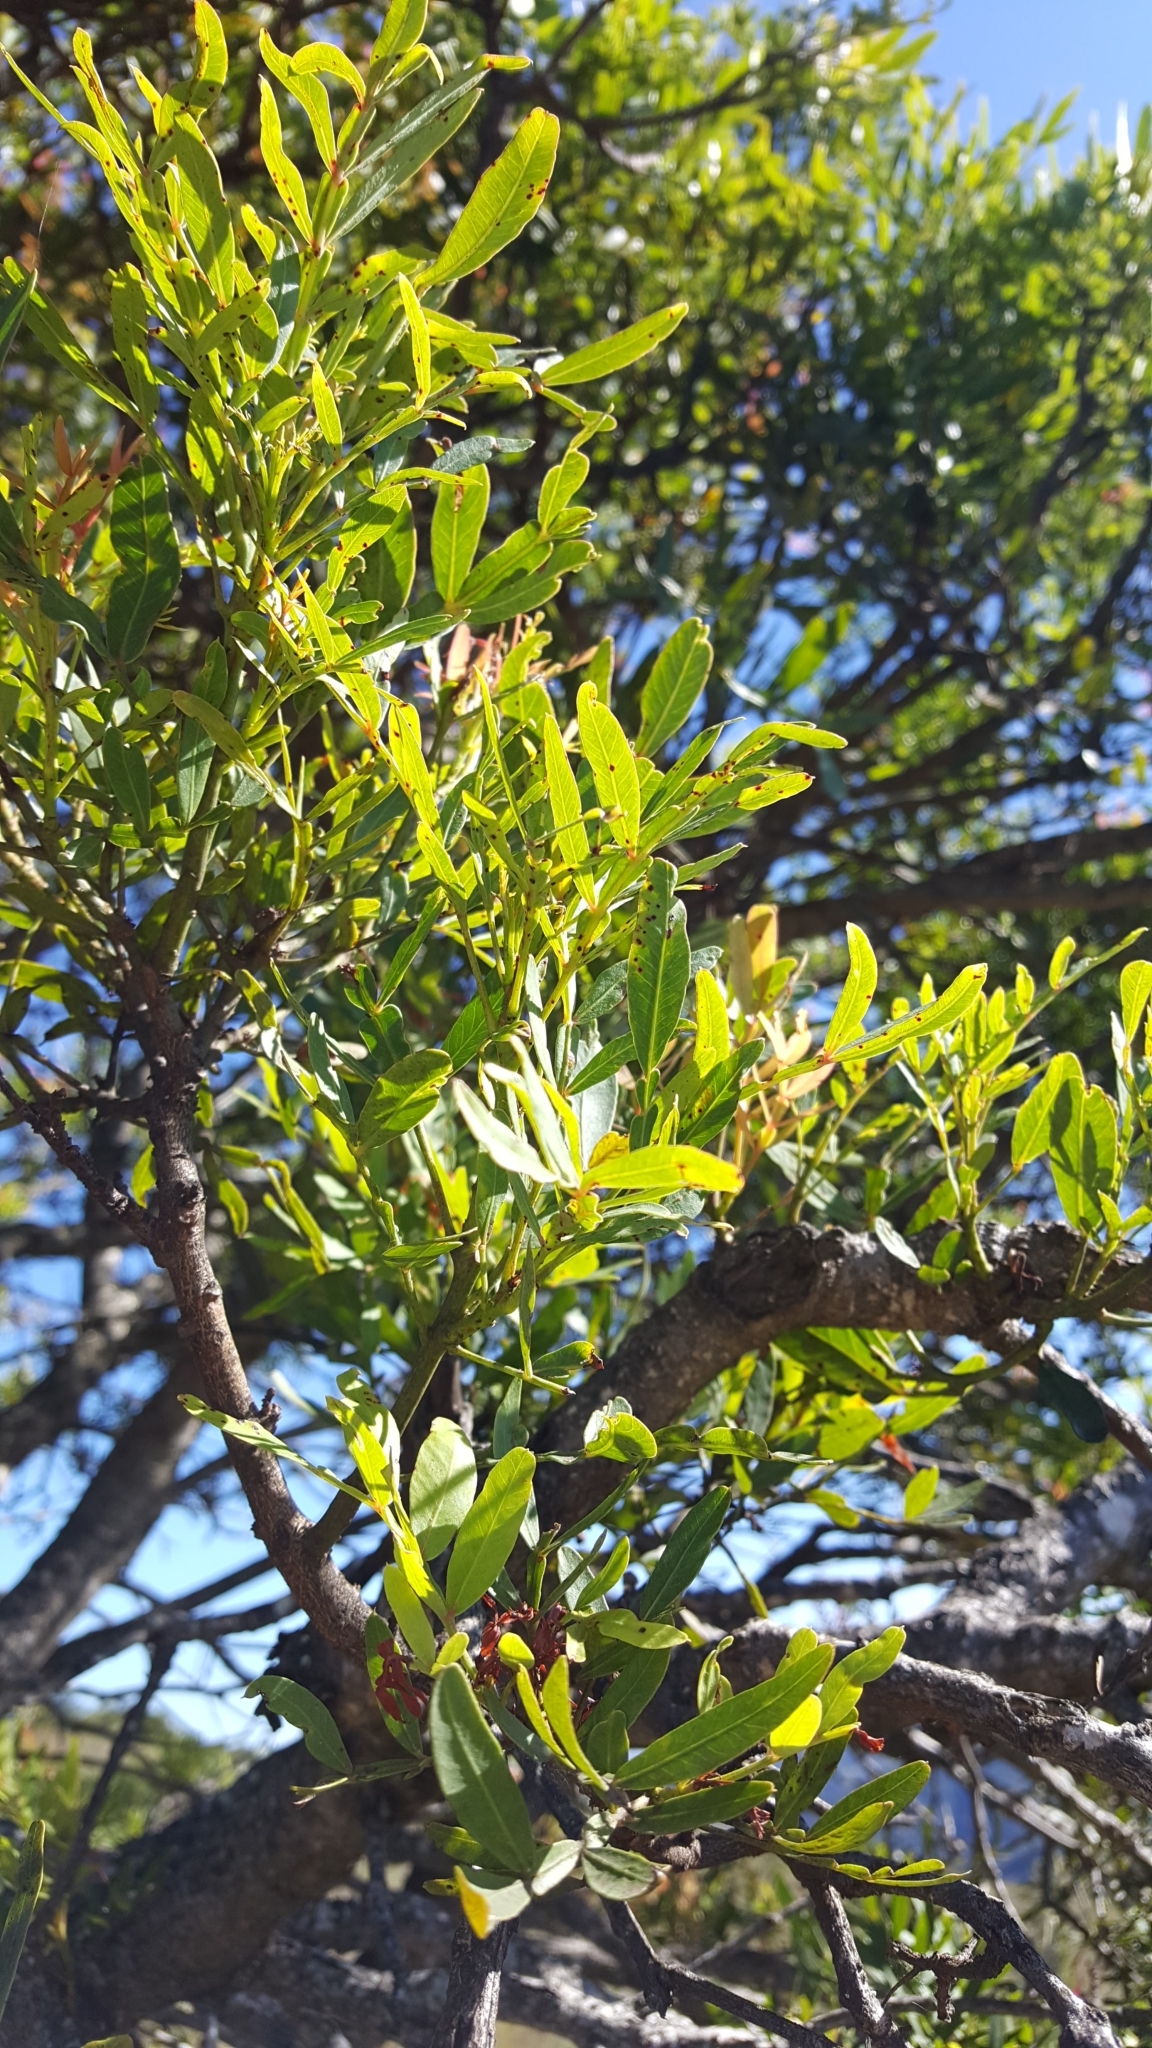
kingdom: Plantae
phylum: Tracheophyta
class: Magnoliopsida
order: Sapindales
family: Anacardiaceae
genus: Loxostylis
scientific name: Loxostylis alata
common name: Wild peppertree
